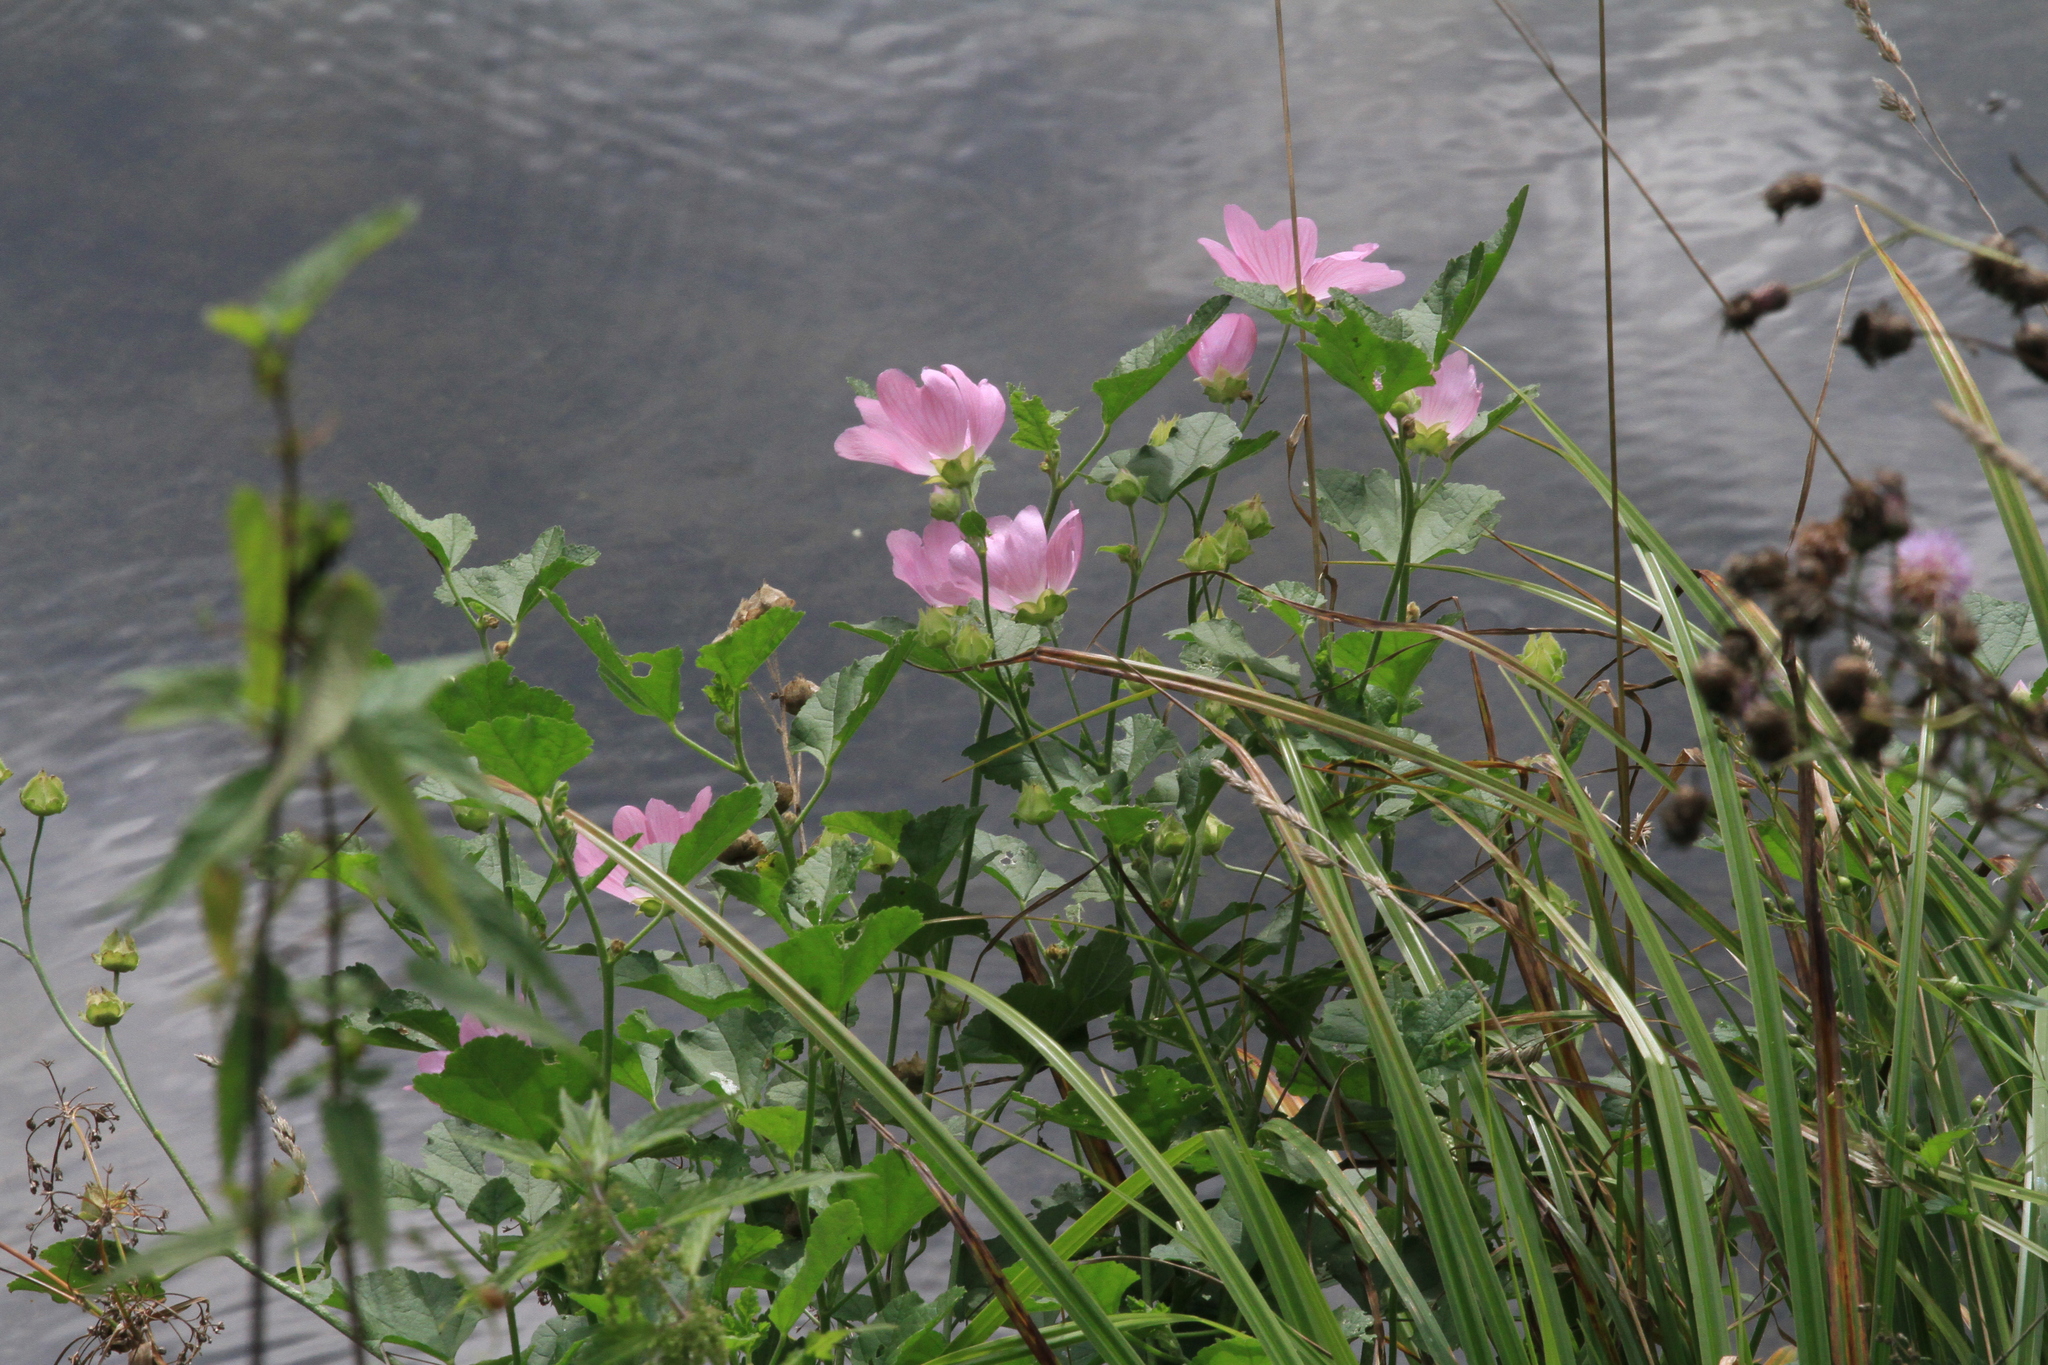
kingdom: Plantae
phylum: Tracheophyta
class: Magnoliopsida
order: Malvales
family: Malvaceae
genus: Malva
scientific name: Malva thuringiaca
